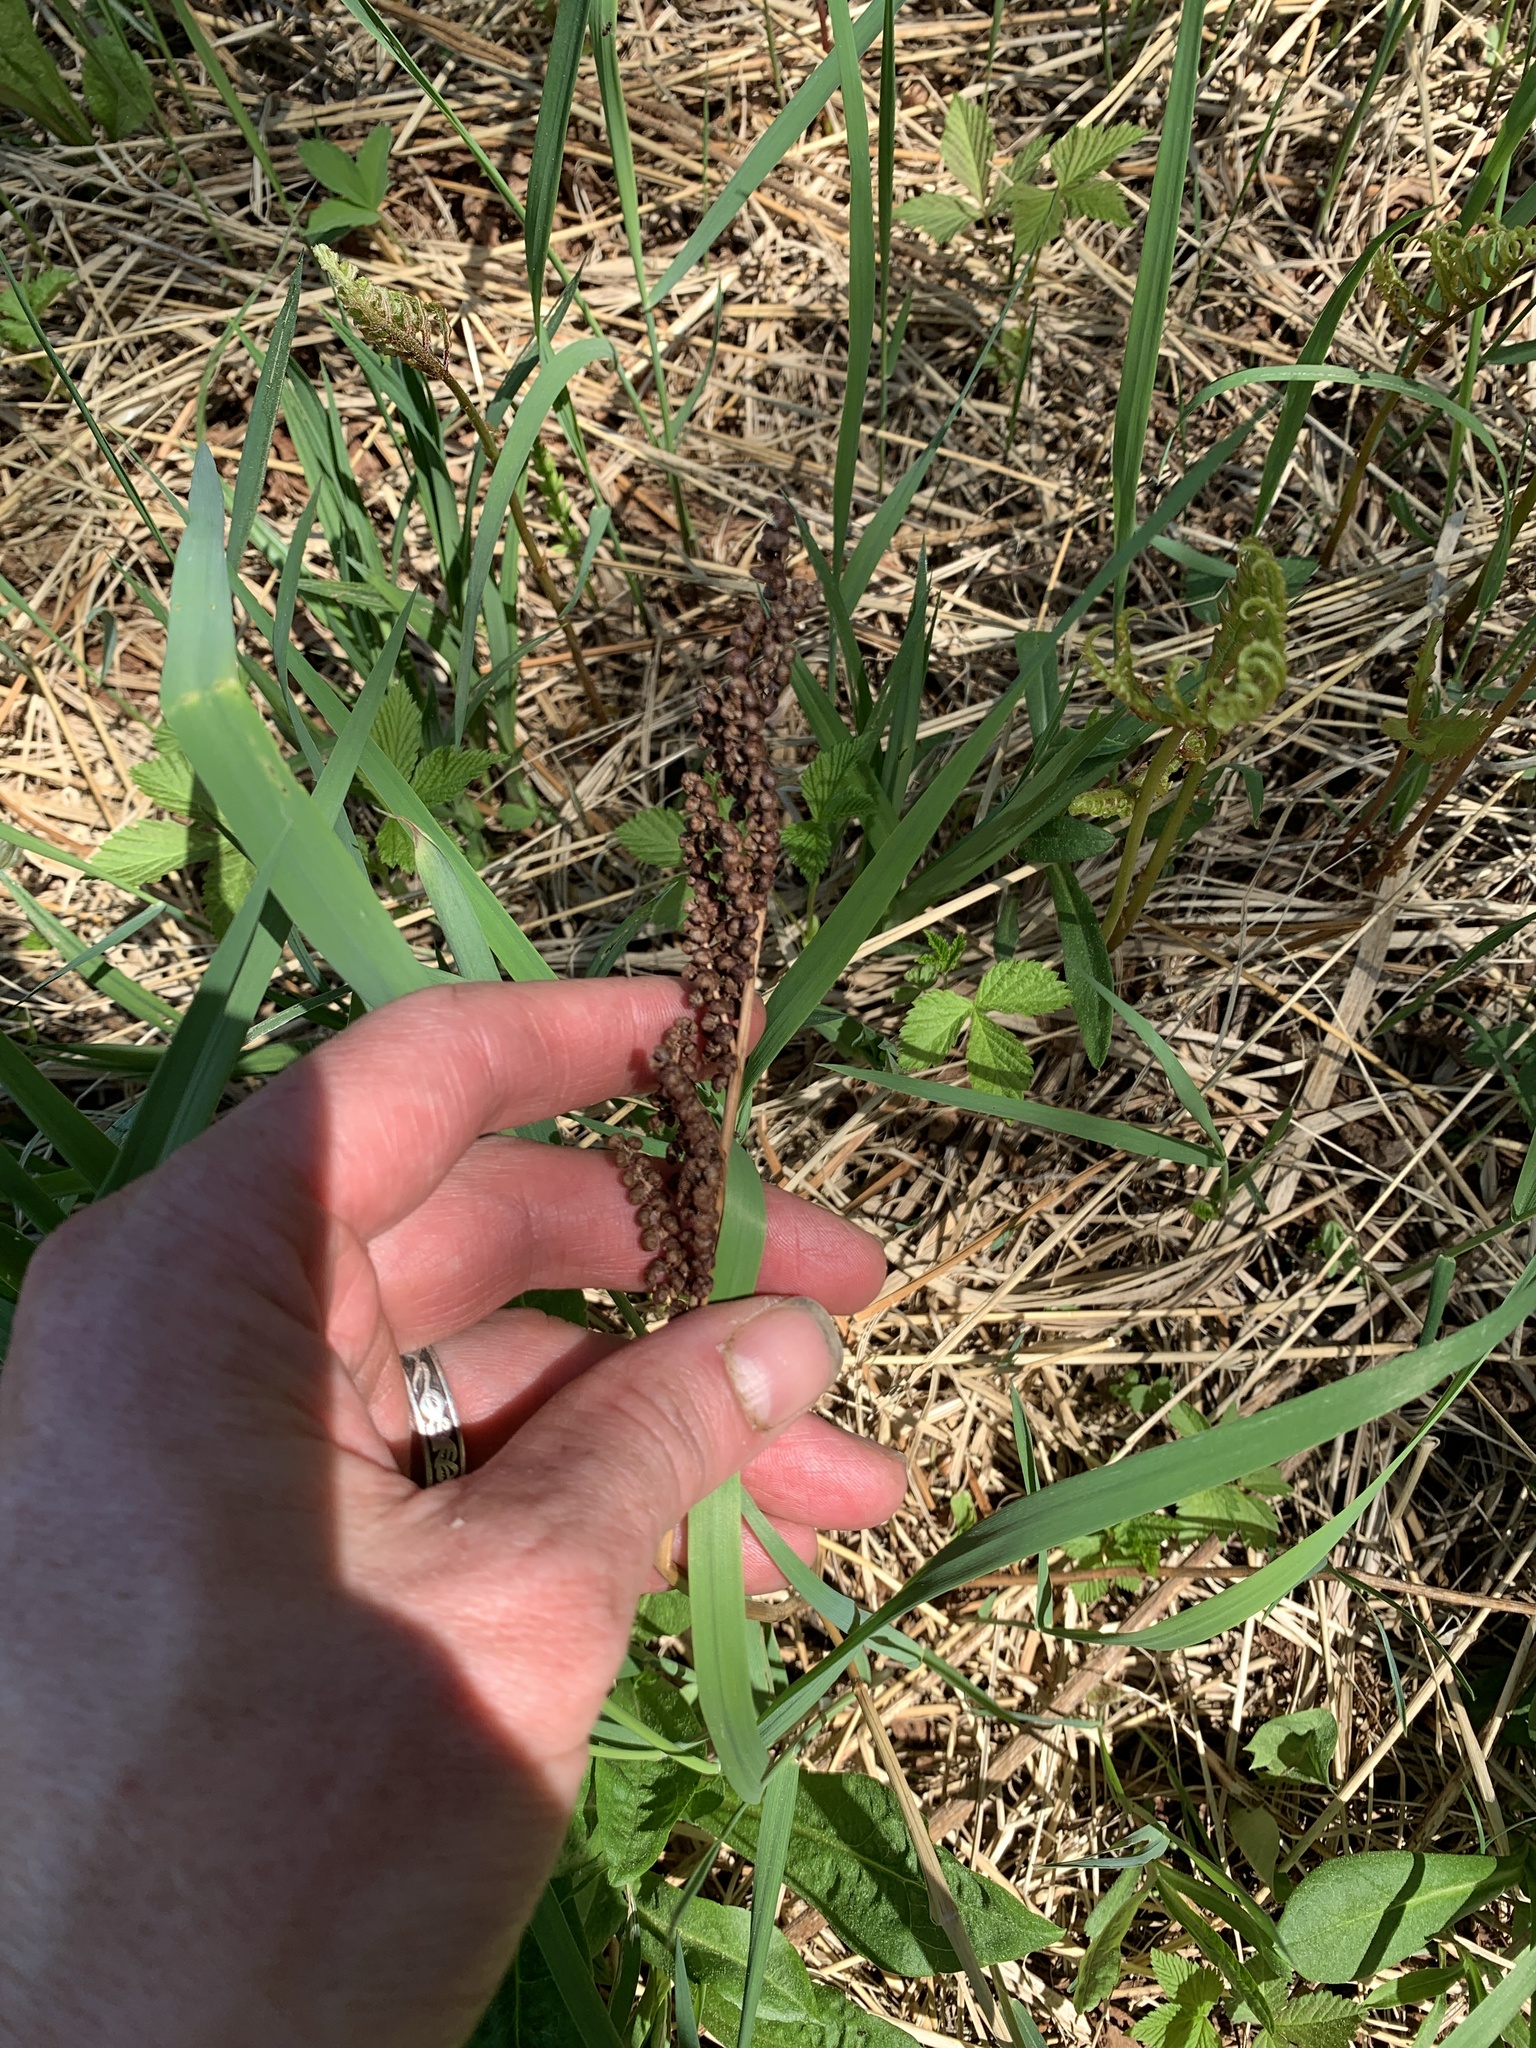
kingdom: Plantae
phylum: Tracheophyta
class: Polypodiopsida
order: Polypodiales
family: Onocleaceae
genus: Onoclea
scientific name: Onoclea sensibilis
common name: Sensitive fern
